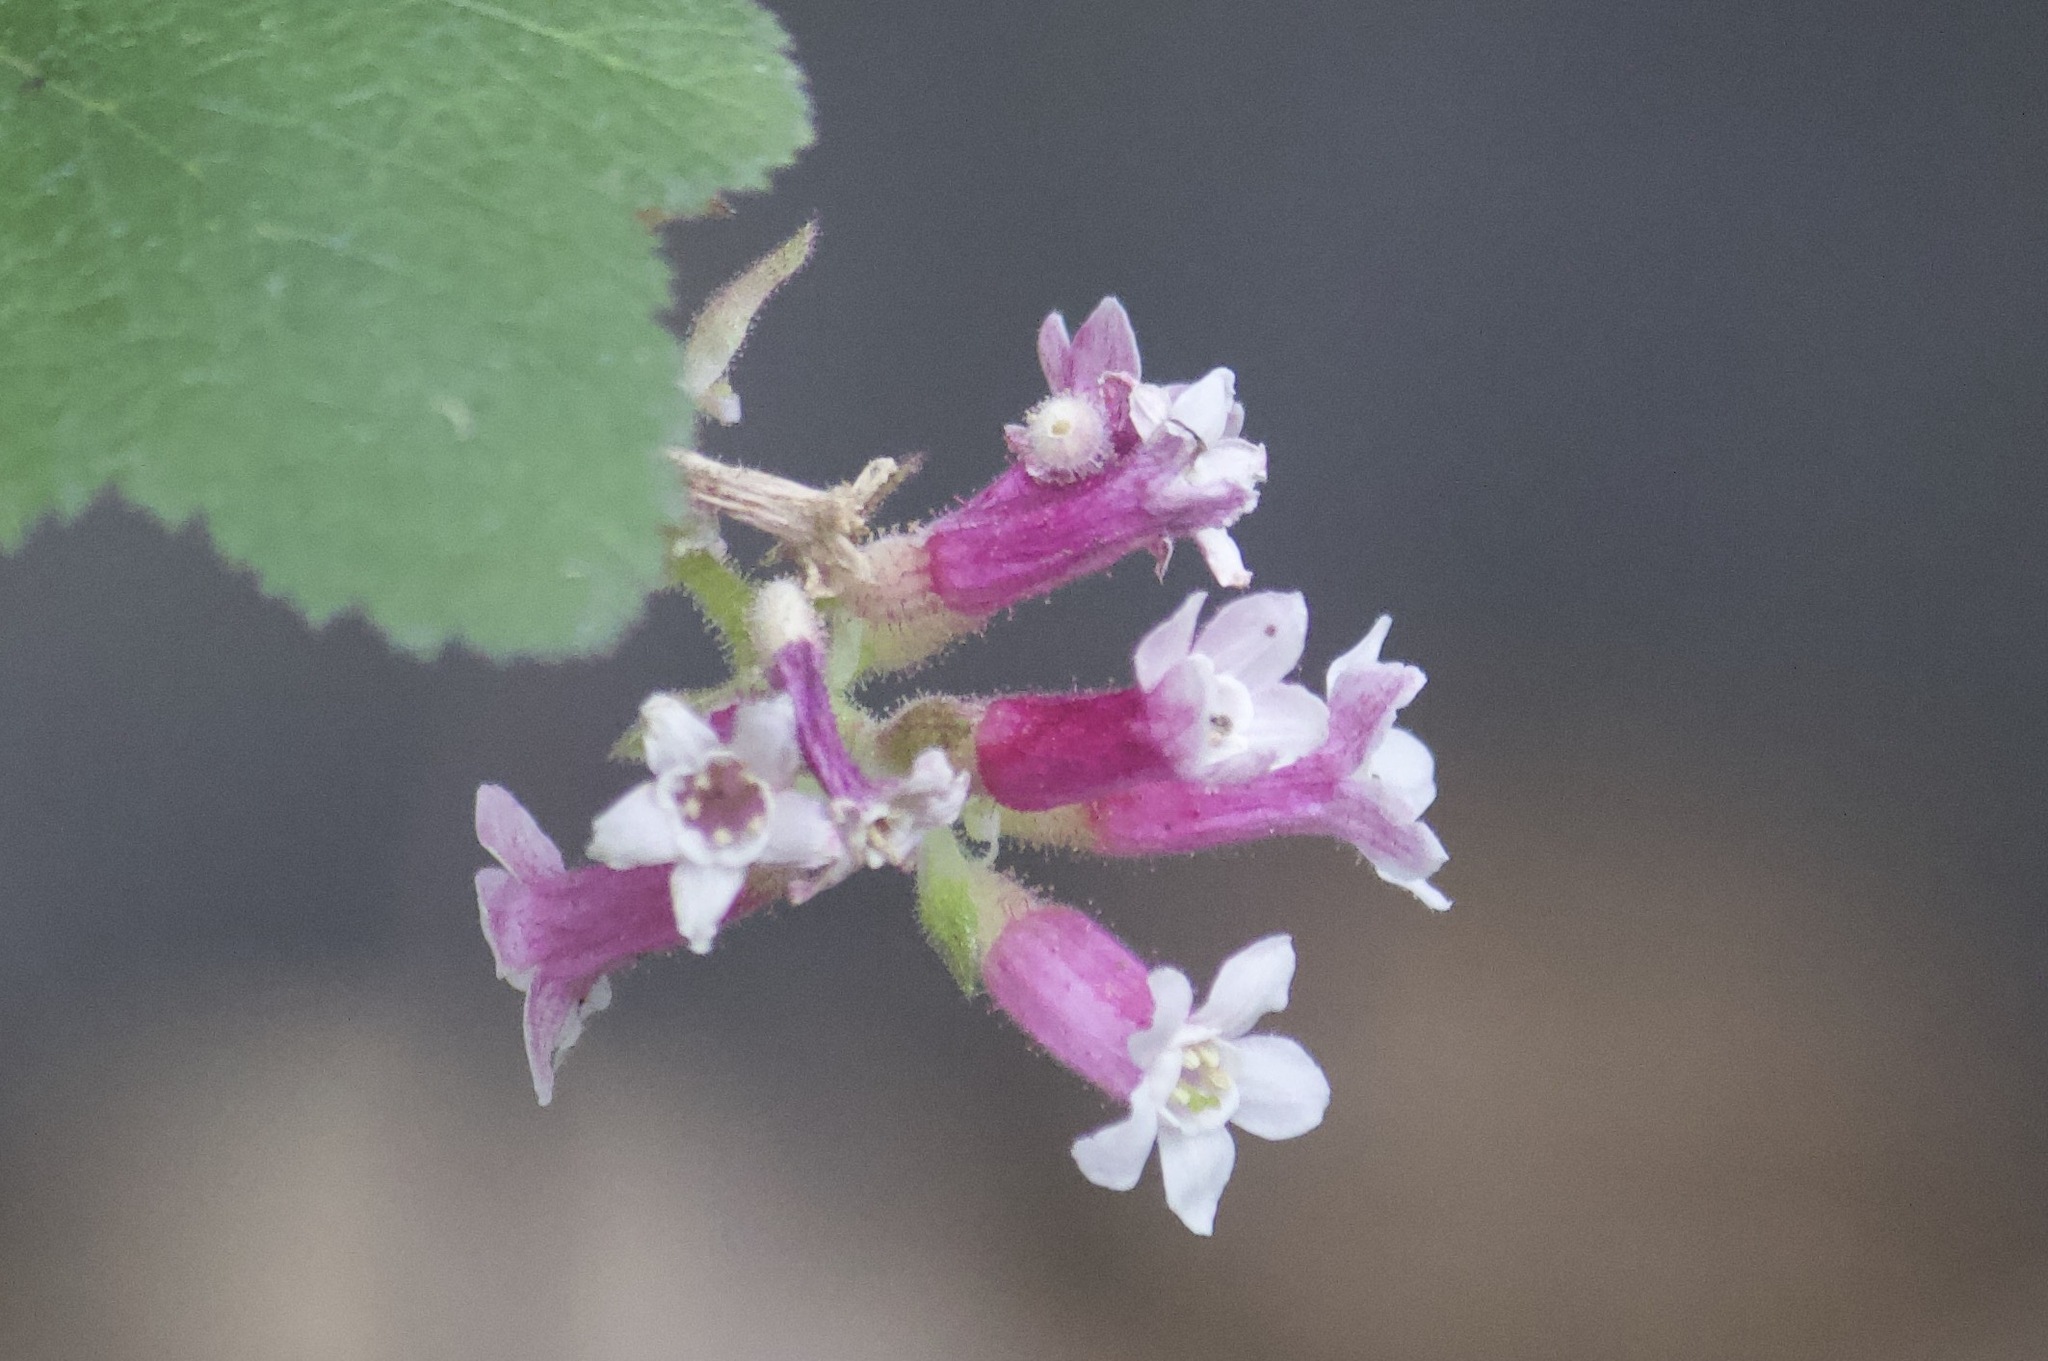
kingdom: Plantae
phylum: Tracheophyta
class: Magnoliopsida
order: Saxifragales
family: Grossulariaceae
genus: Ribes
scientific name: Ribes malvaceum
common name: Chaparral currant
